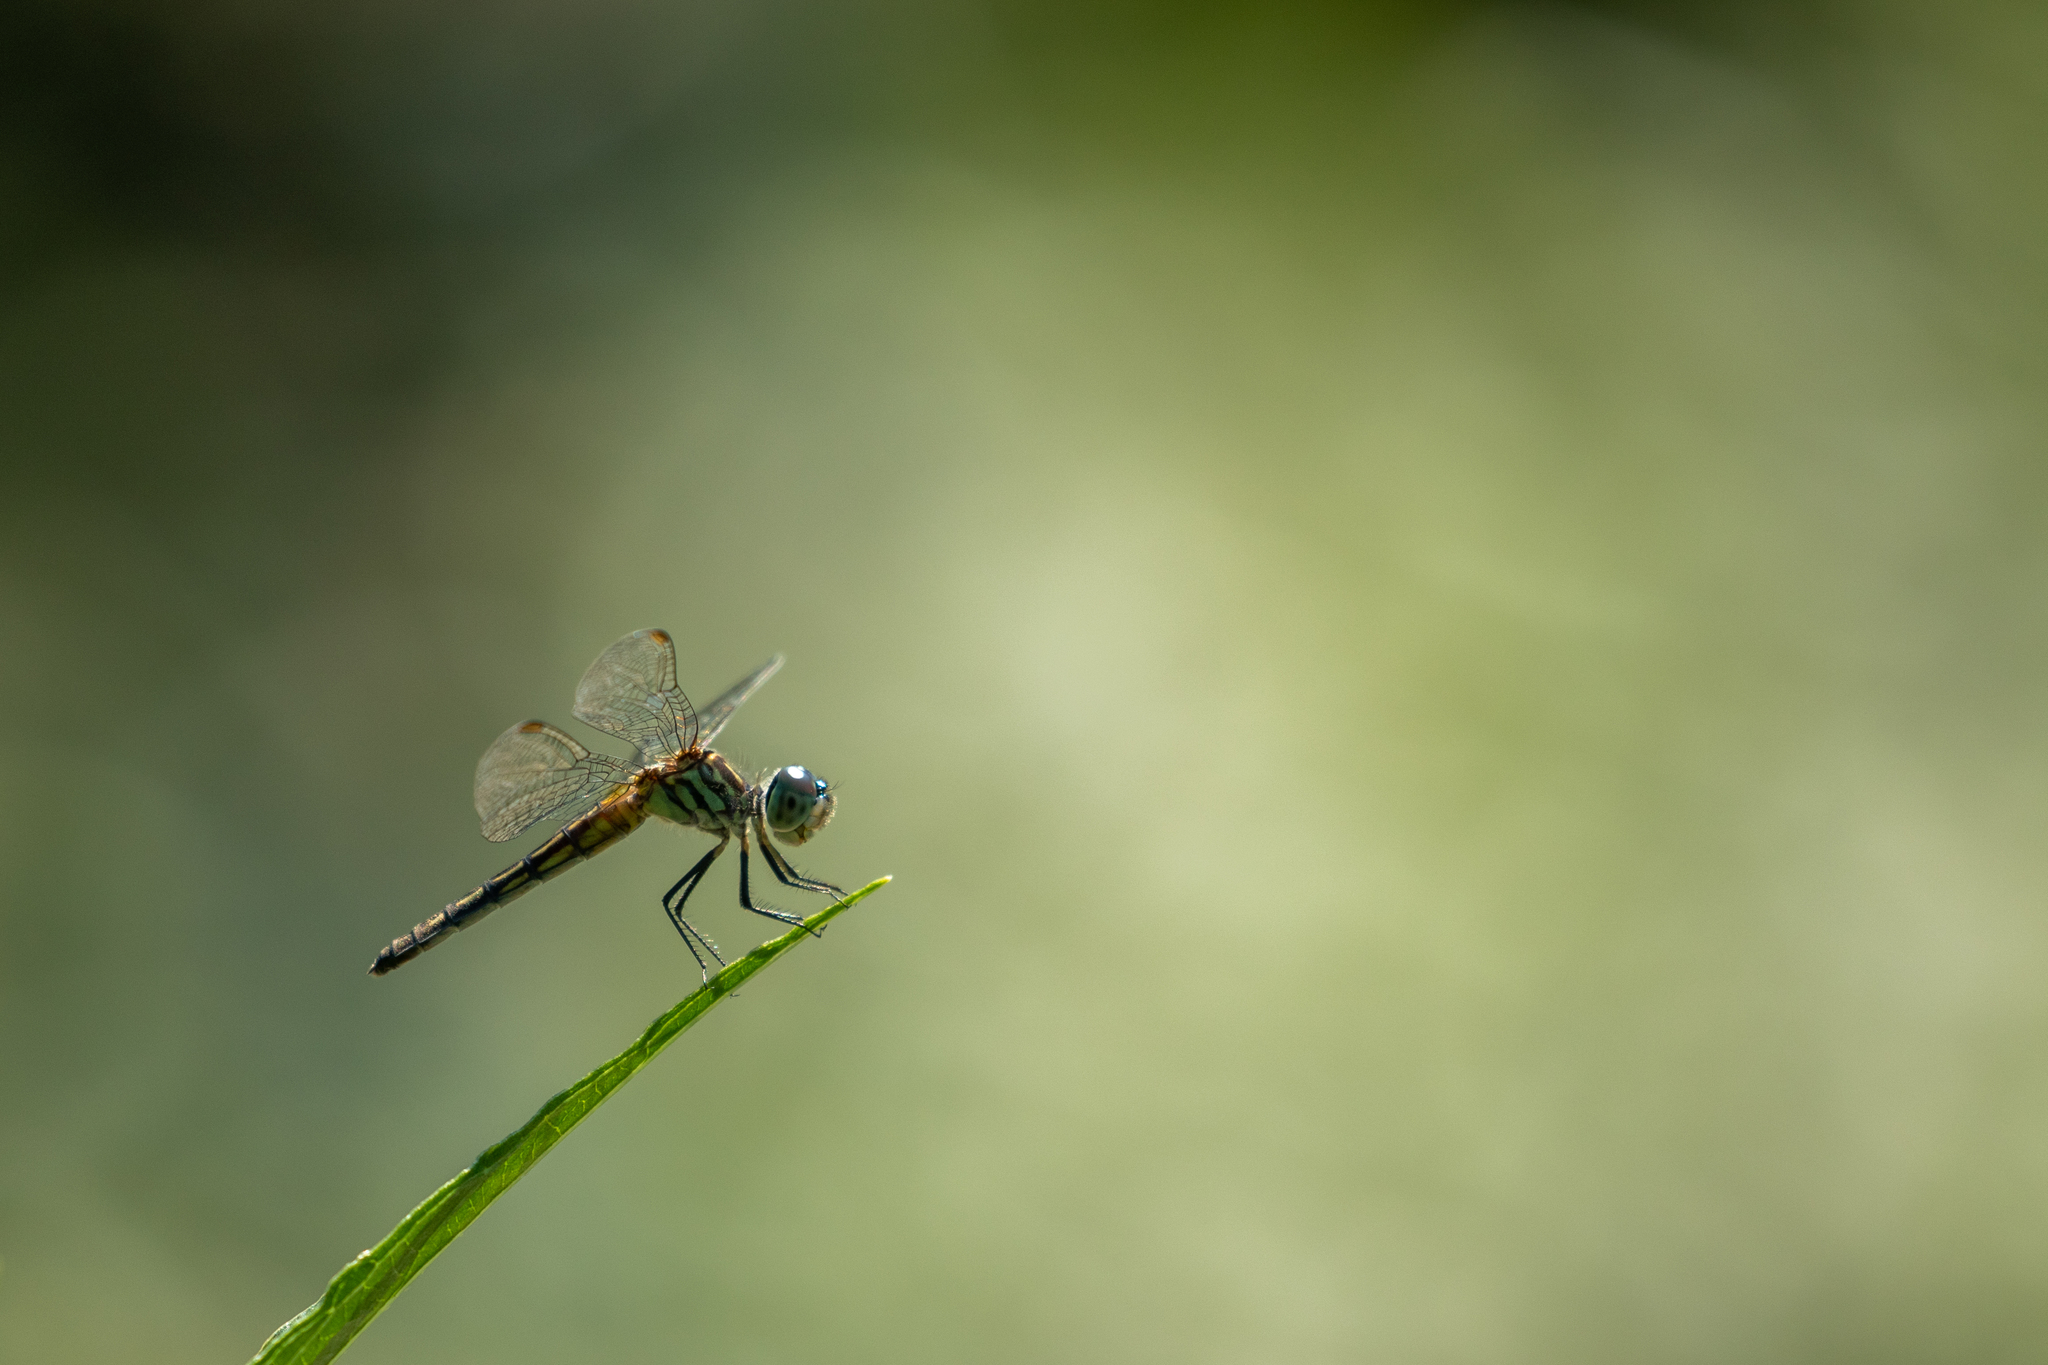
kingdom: Animalia
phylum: Arthropoda
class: Insecta
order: Odonata
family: Libellulidae
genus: Pachydiplax
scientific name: Pachydiplax longipennis
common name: Blue dasher
